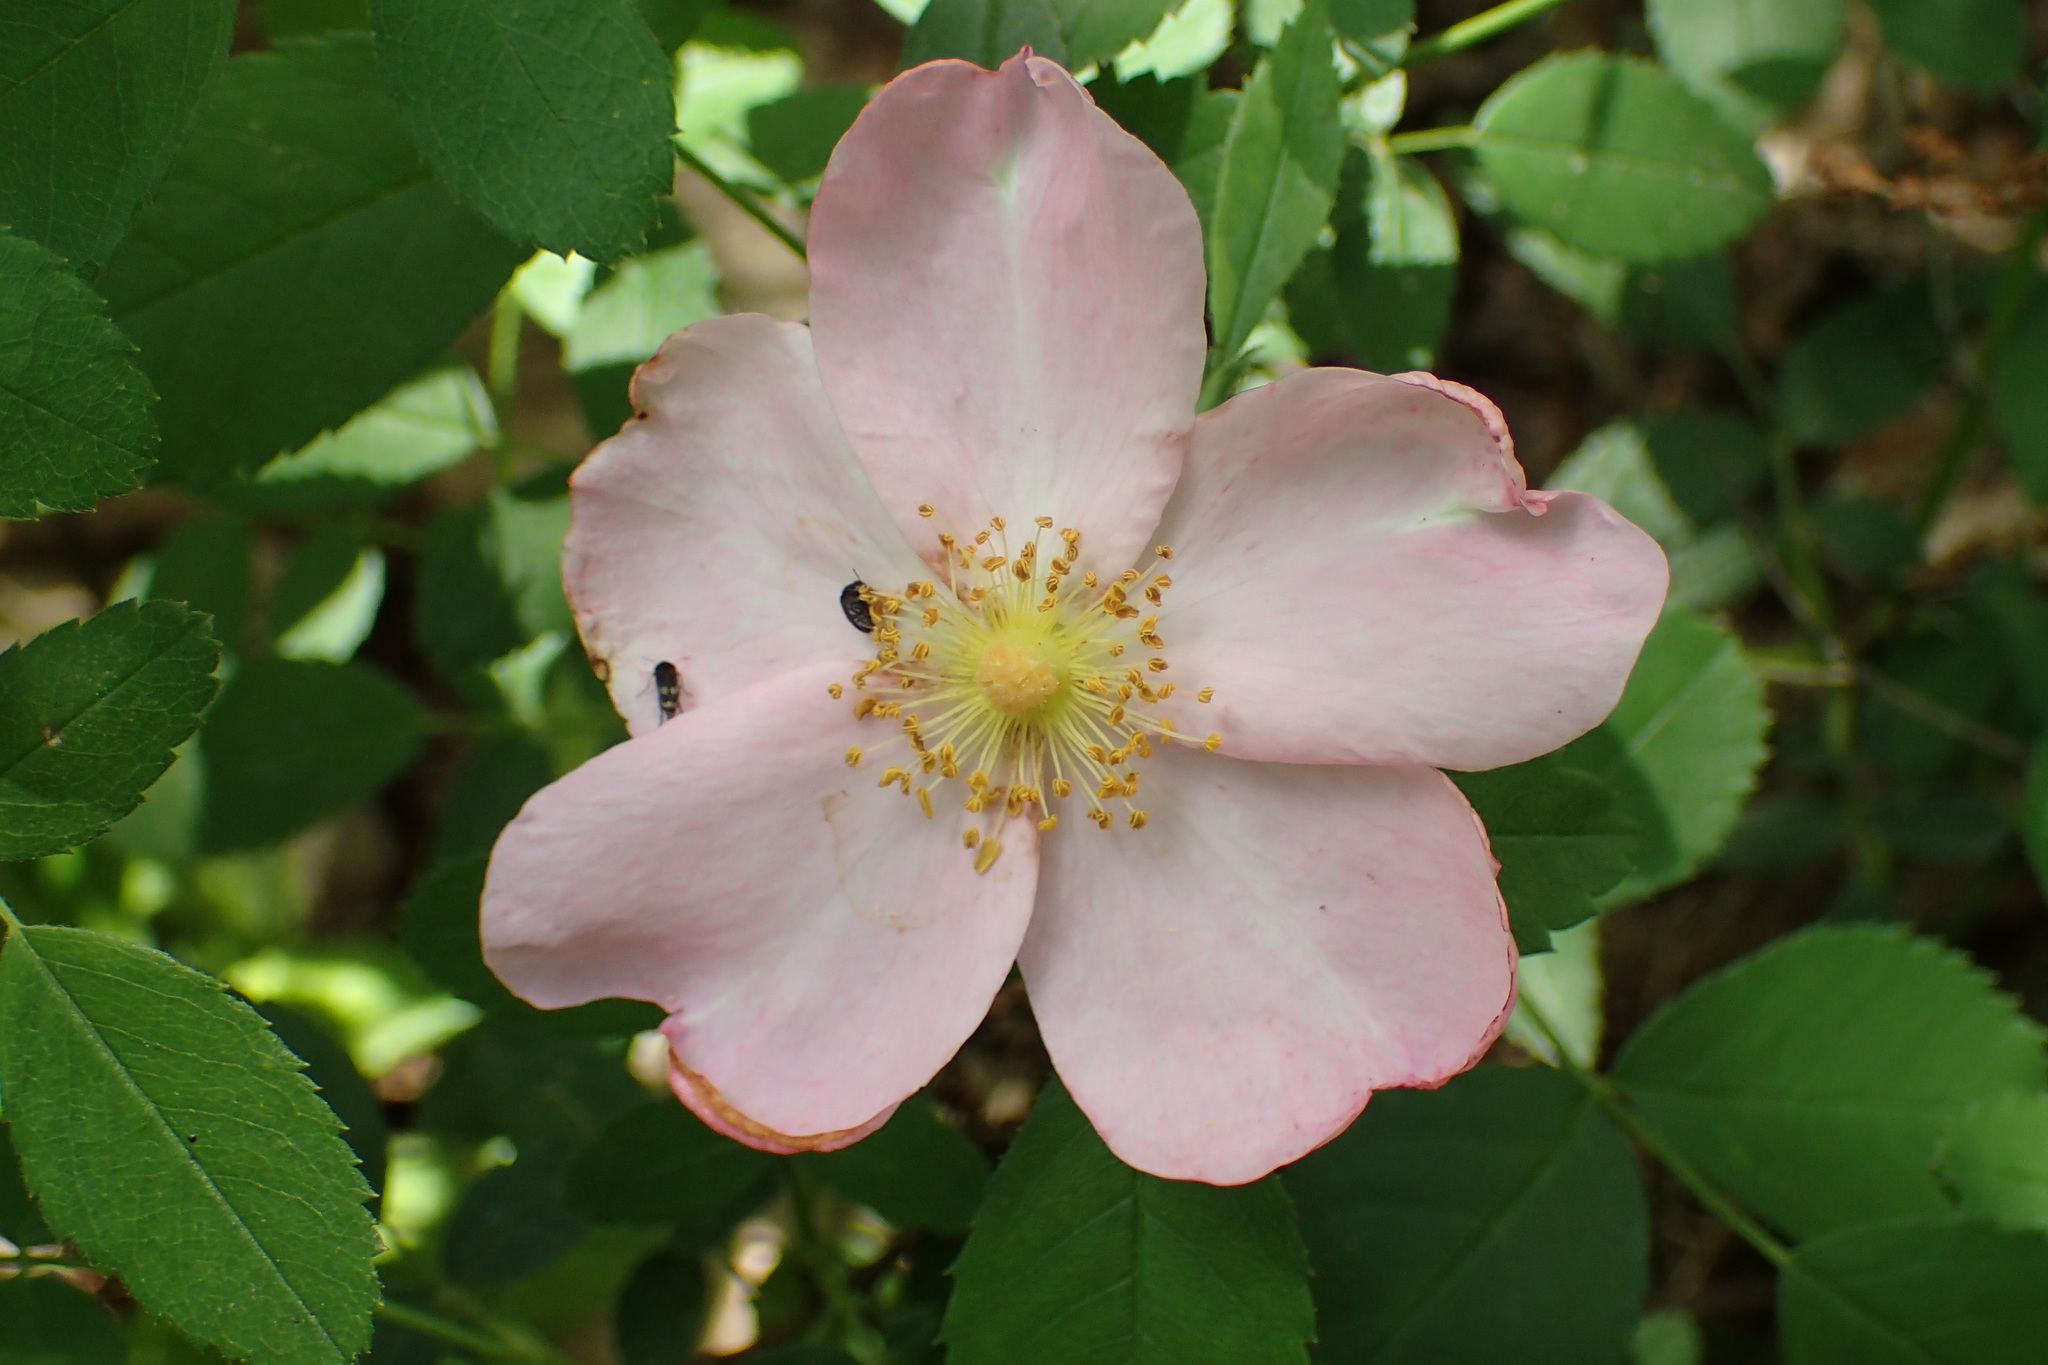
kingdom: Plantae
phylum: Tracheophyta
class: Magnoliopsida
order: Rosales
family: Rosaceae
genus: Rosa
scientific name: Rosa carolina
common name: Pasture rose
